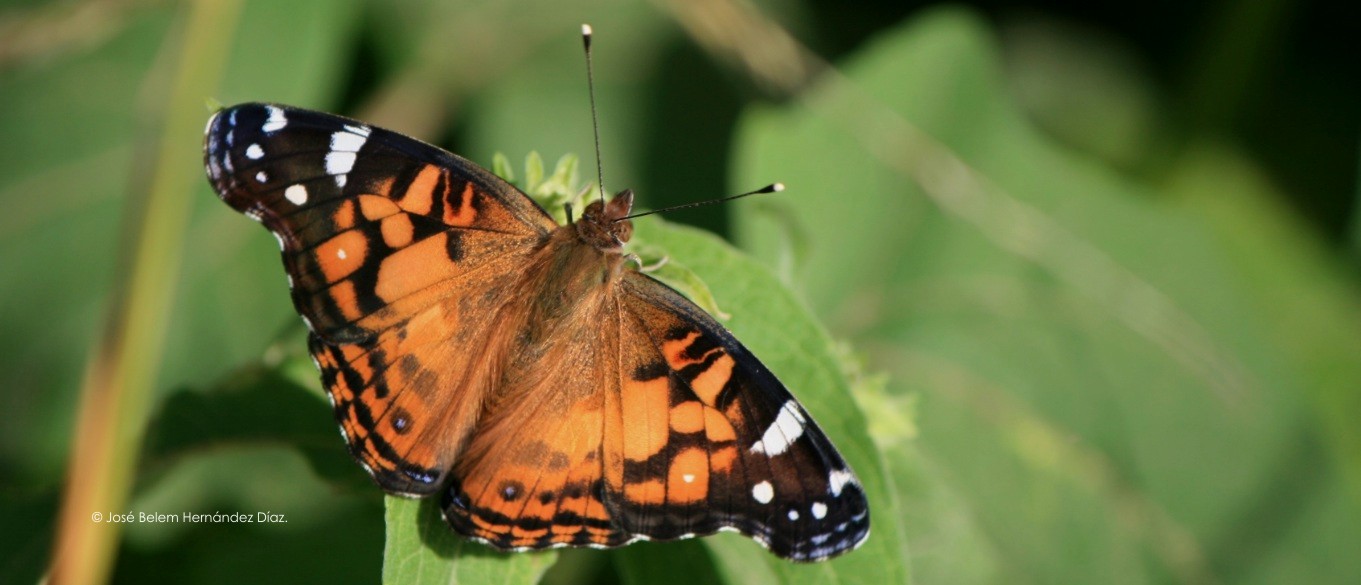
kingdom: Animalia
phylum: Arthropoda
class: Insecta
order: Lepidoptera
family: Nymphalidae
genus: Vanessa
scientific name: Vanessa virginiensis
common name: American lady
